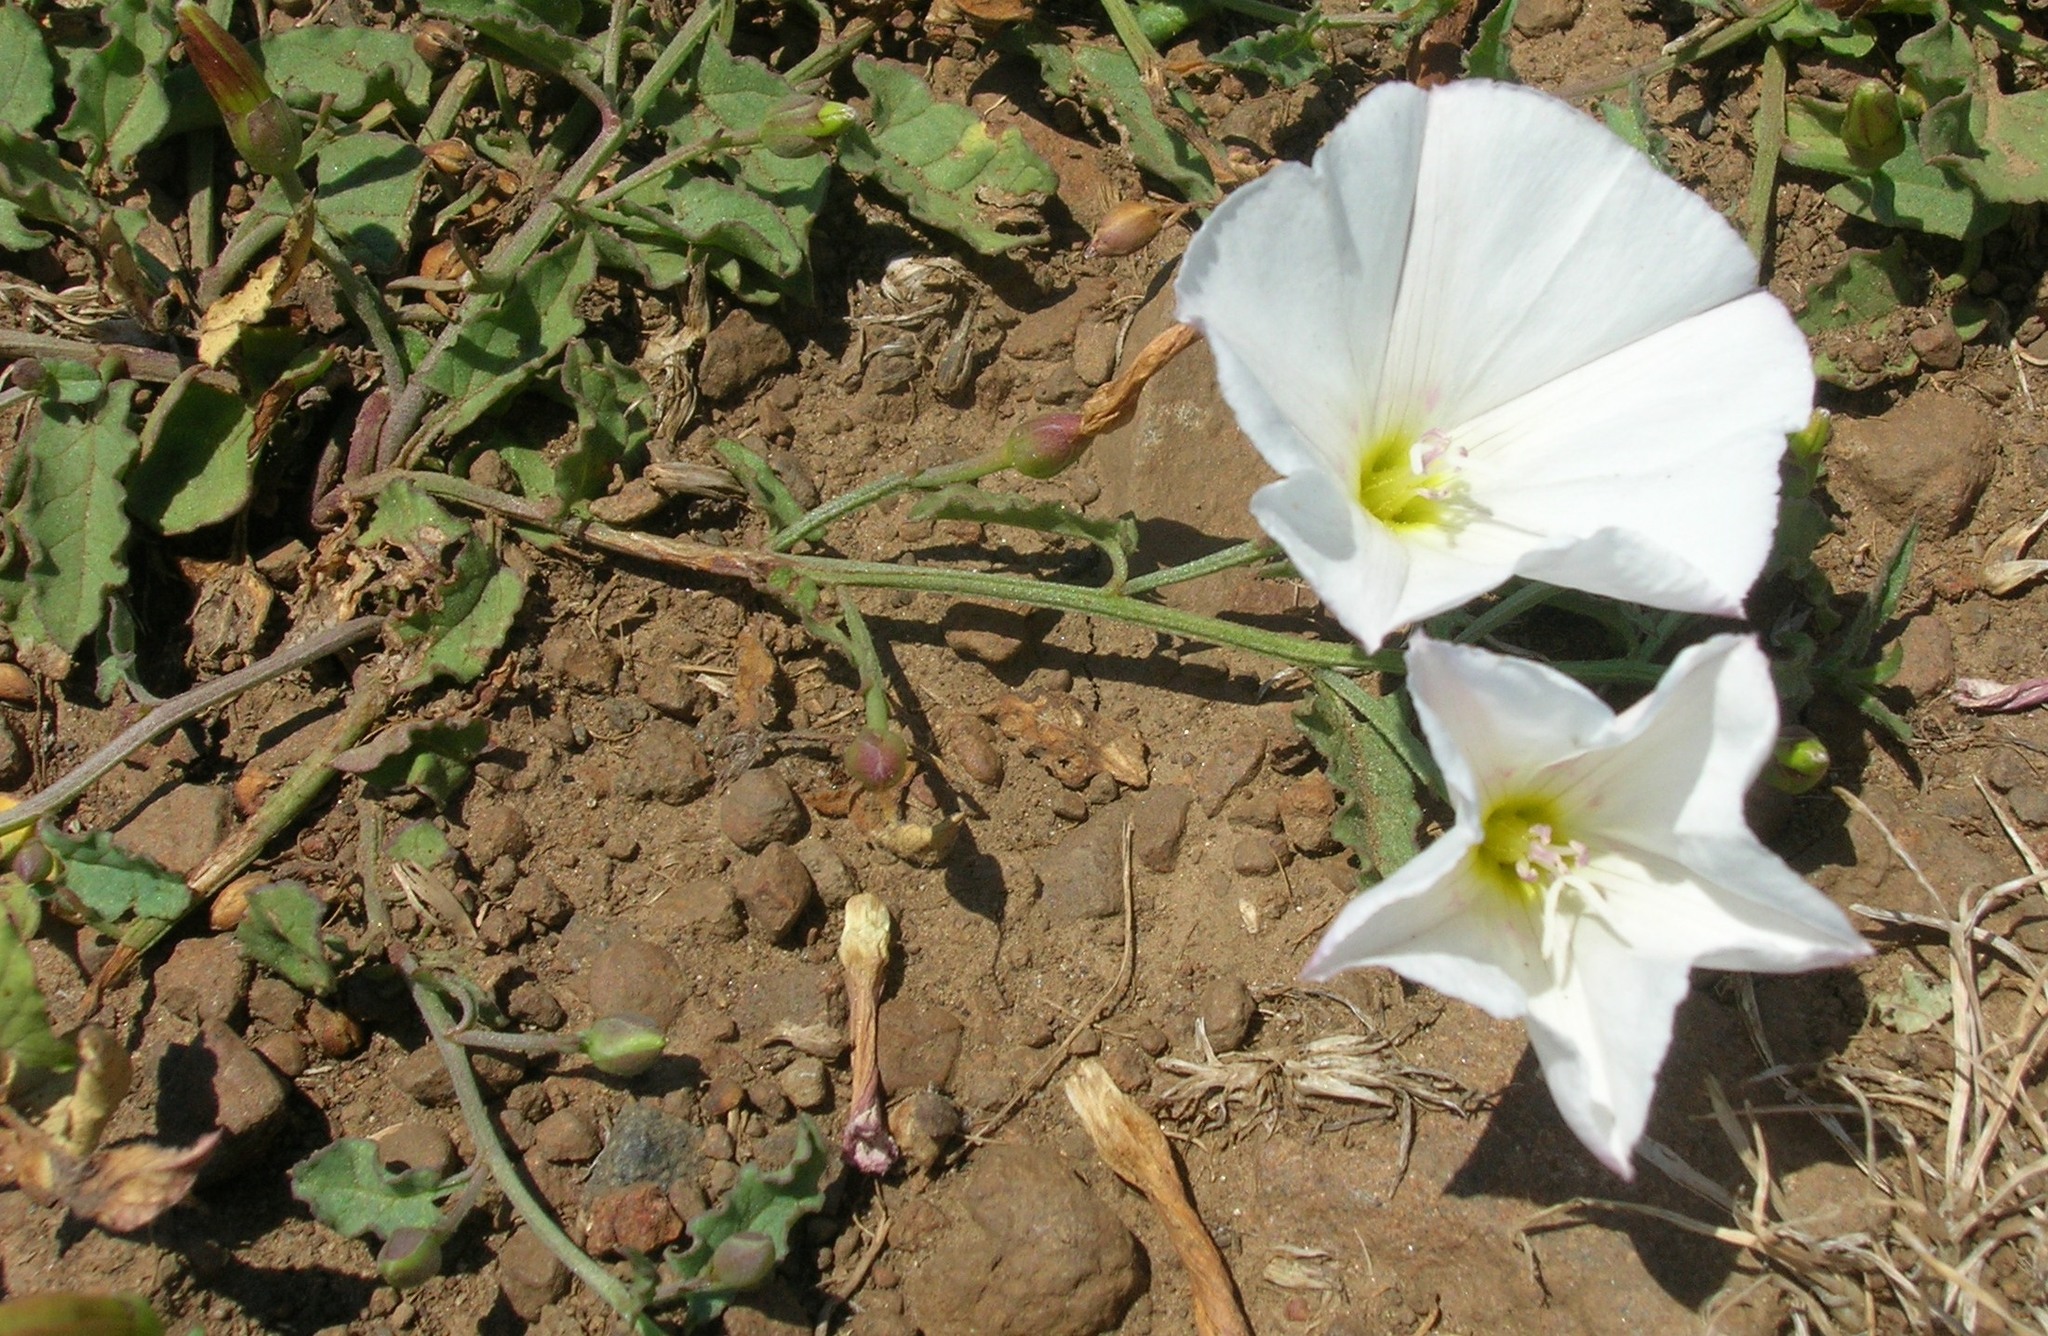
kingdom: Plantae
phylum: Tracheophyta
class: Magnoliopsida
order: Solanales
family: Convolvulaceae
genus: Convolvulus
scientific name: Convolvulus arvensis
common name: Field bindweed
